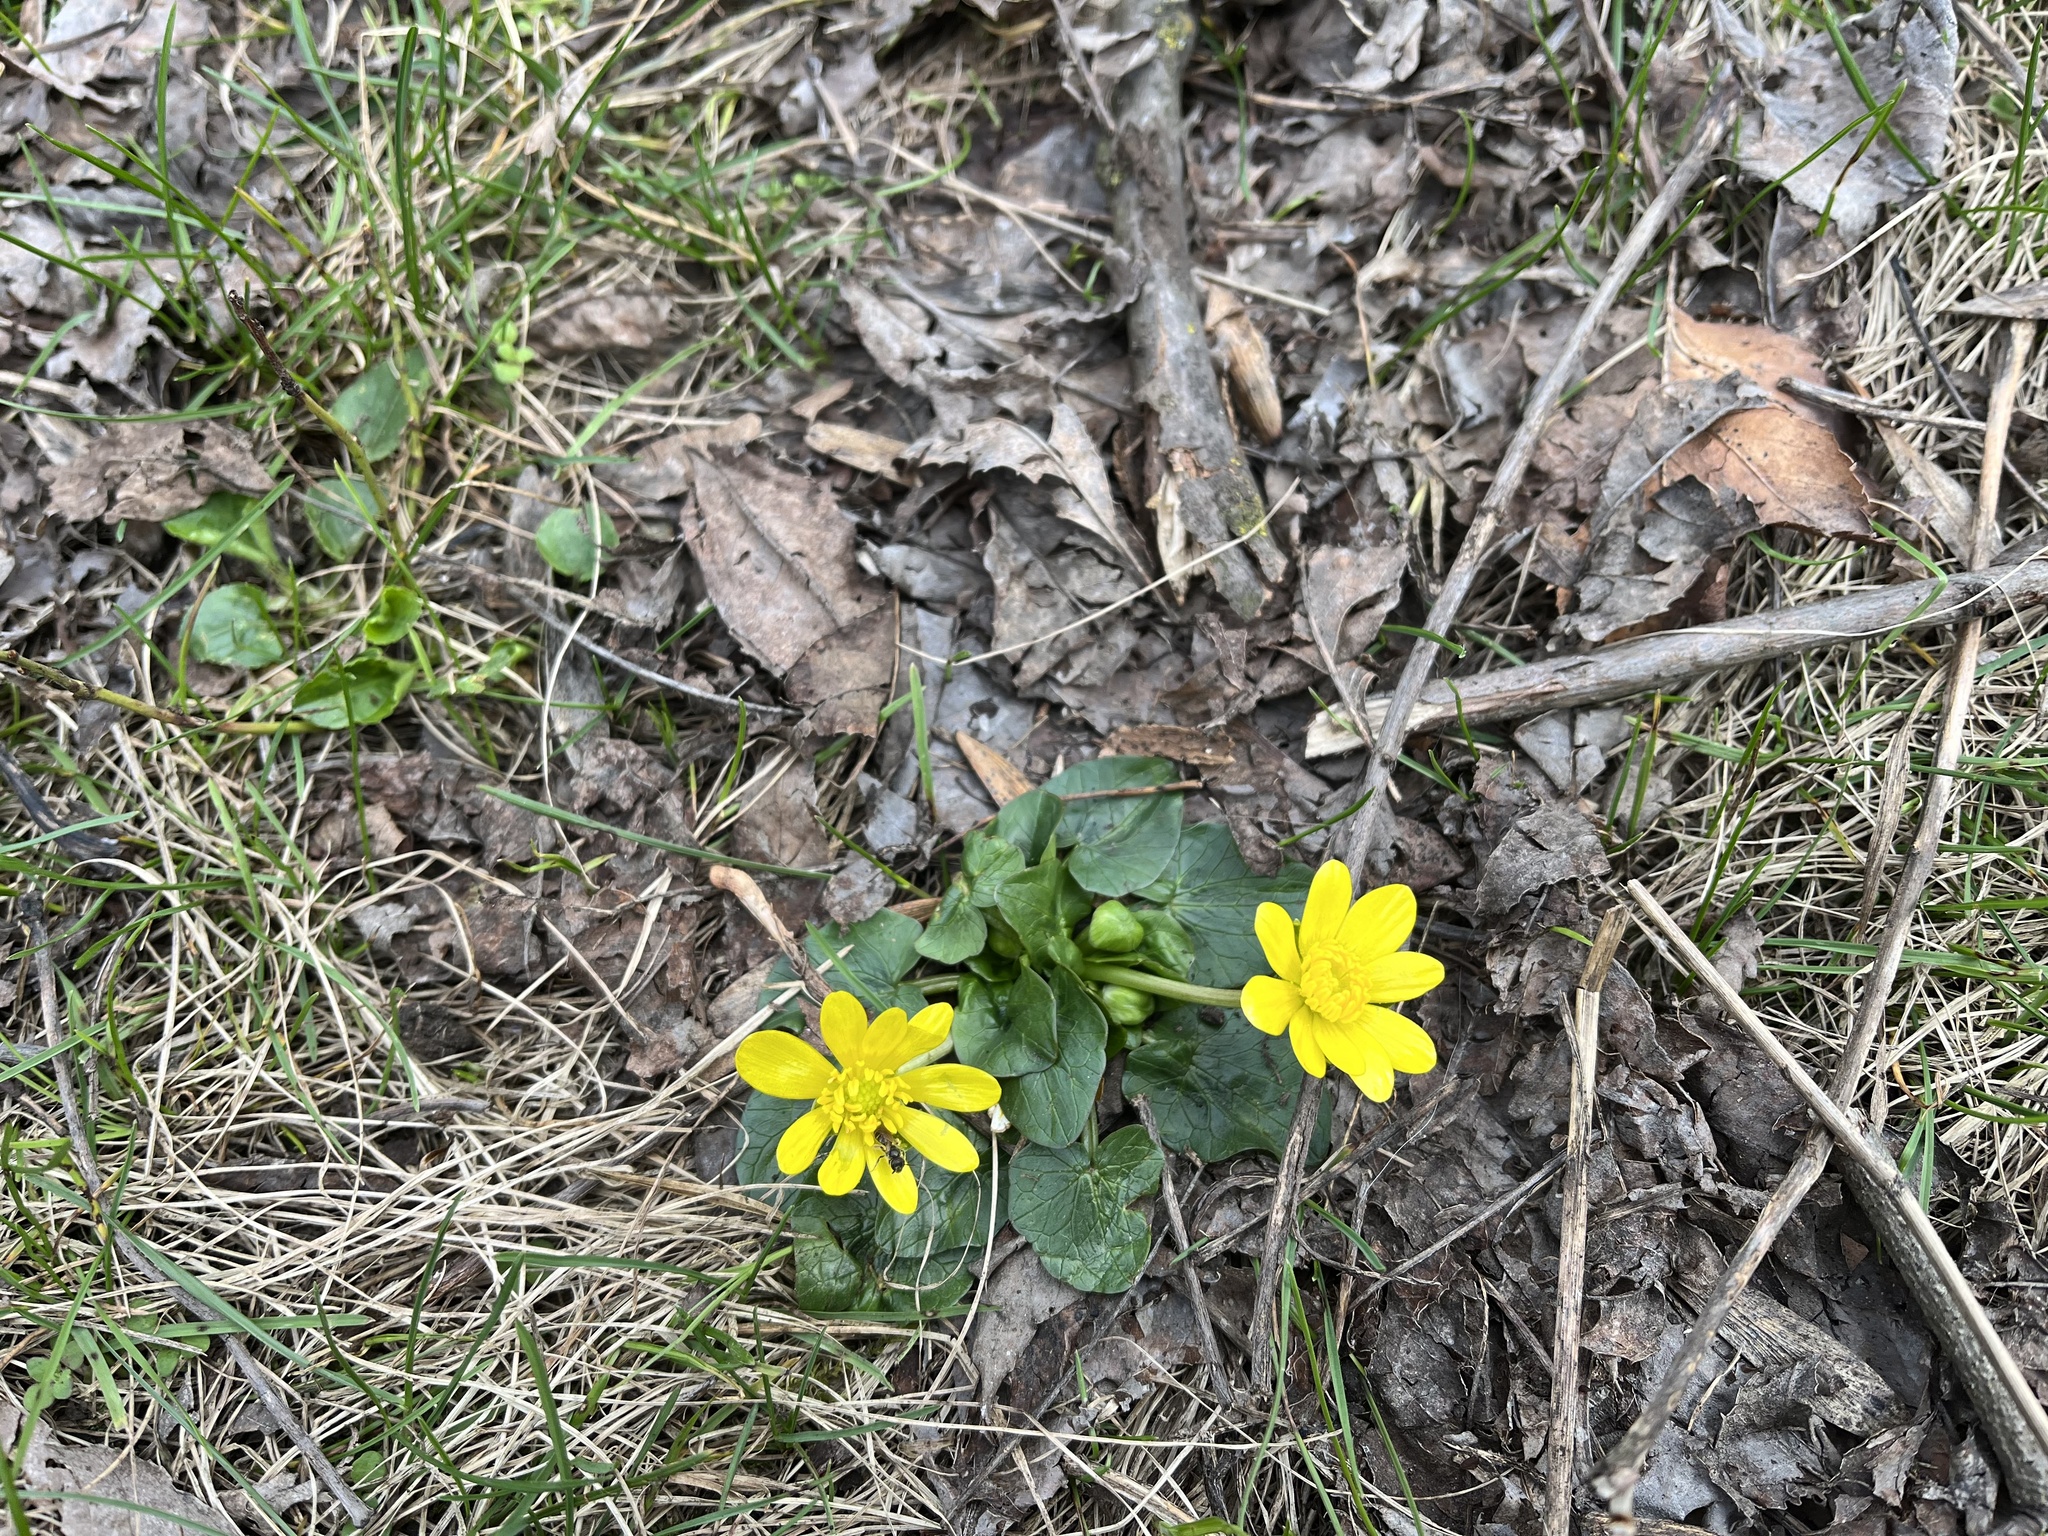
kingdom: Plantae
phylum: Tracheophyta
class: Magnoliopsida
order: Ranunculales
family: Ranunculaceae
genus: Ficaria
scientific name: Ficaria
